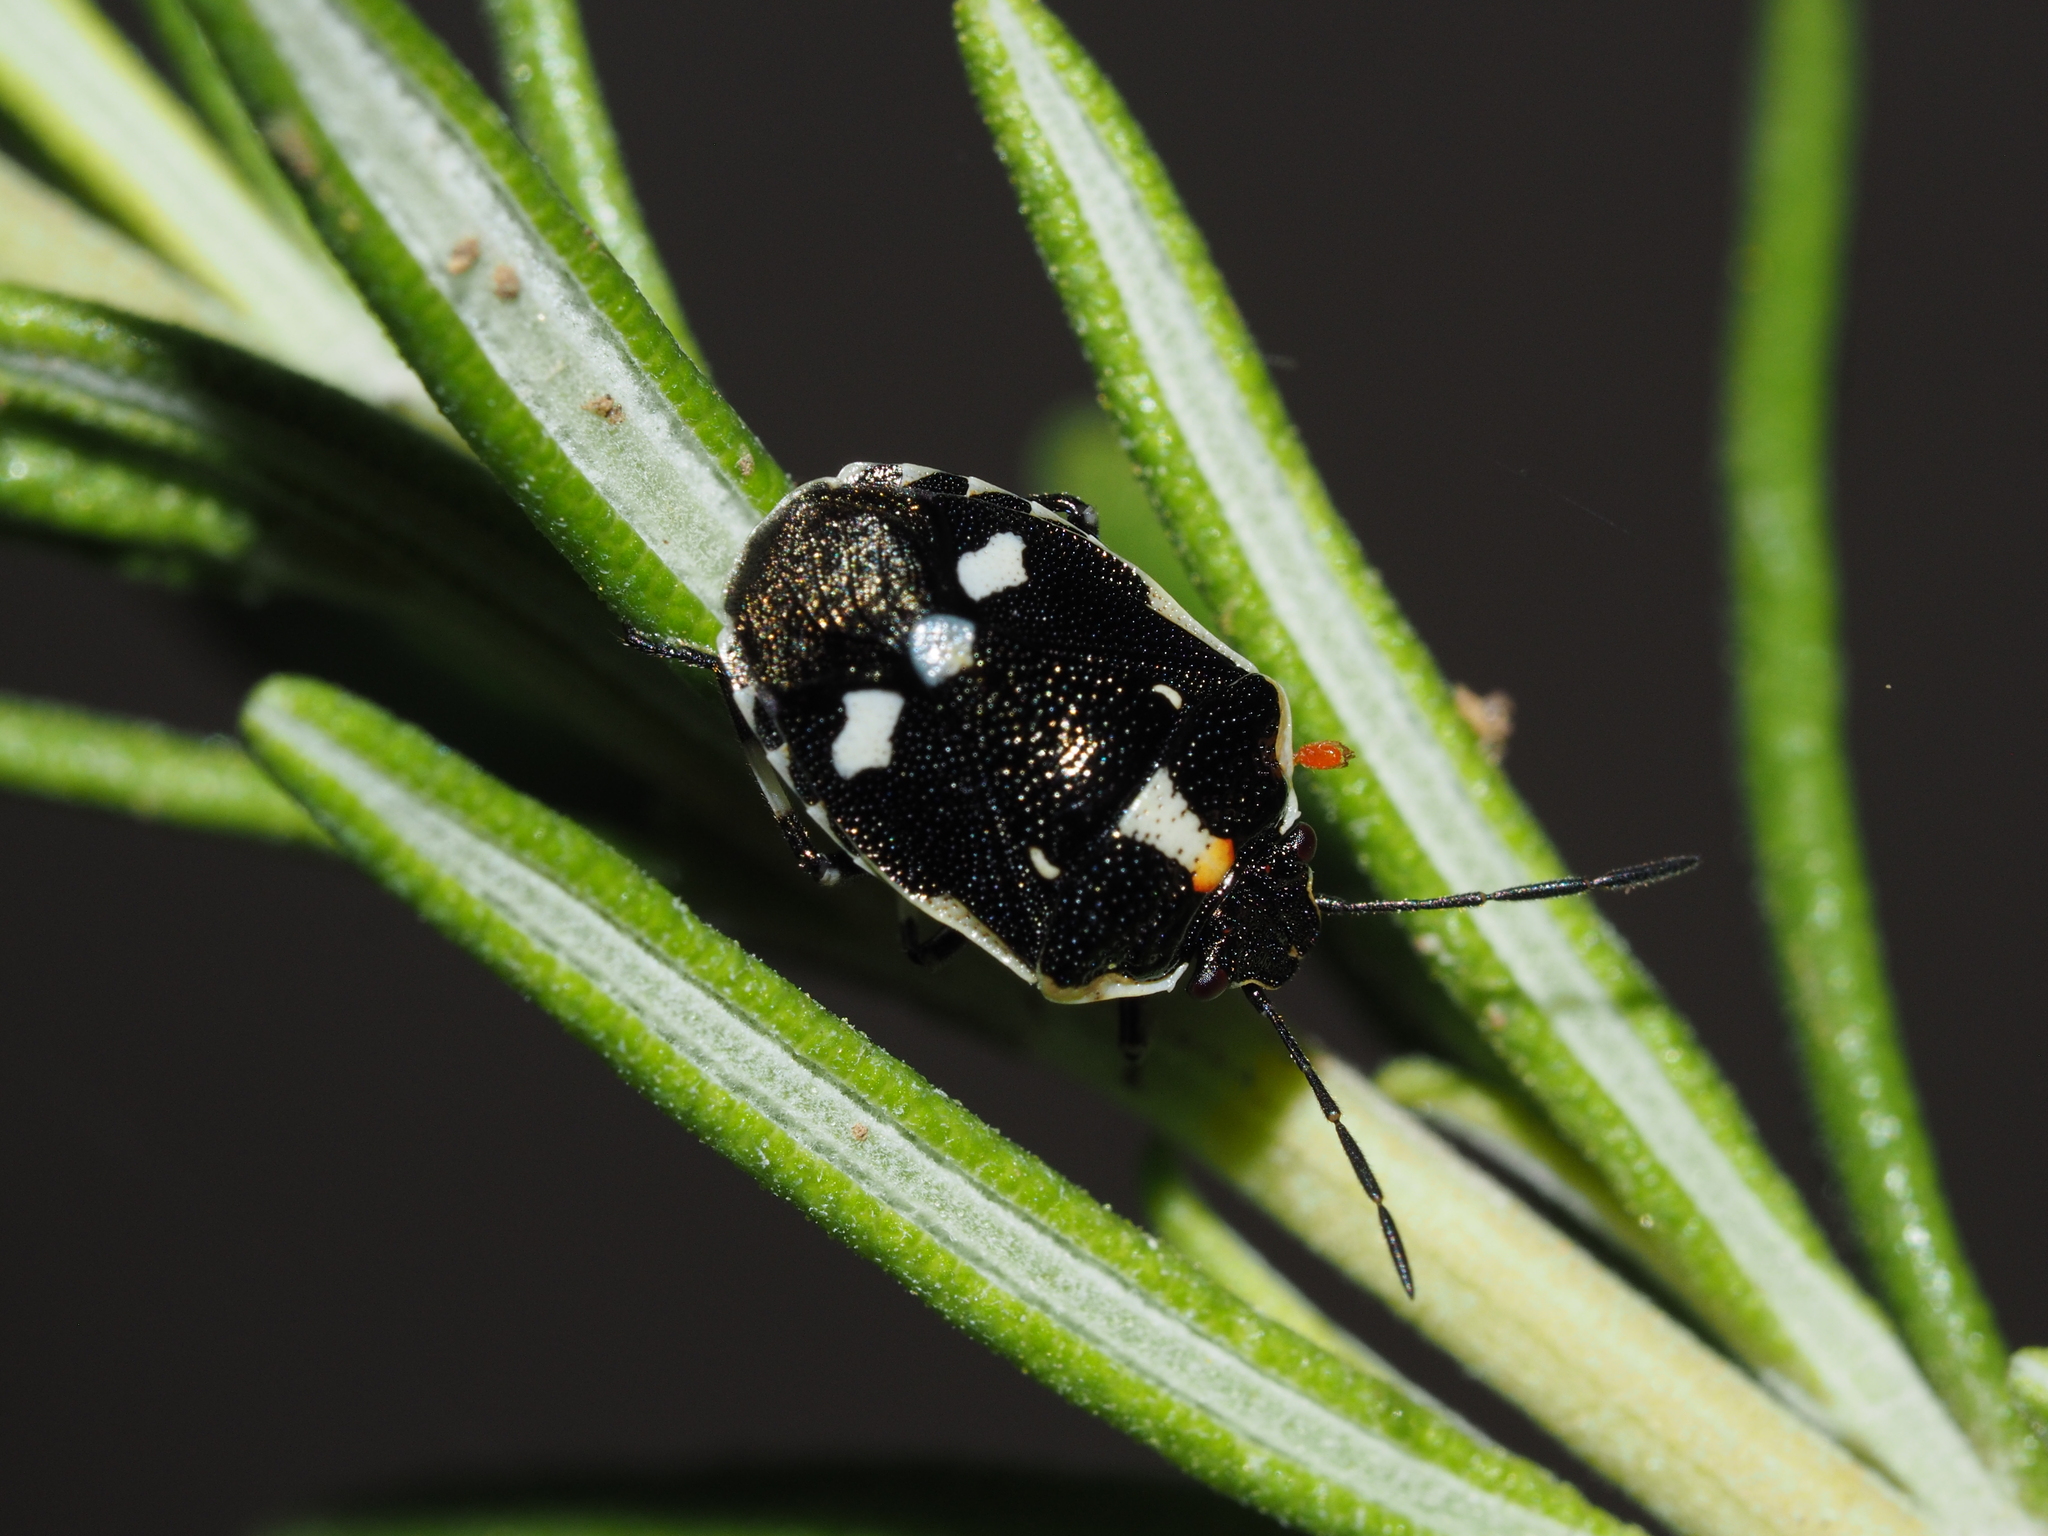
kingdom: Animalia
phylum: Arthropoda
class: Insecta
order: Hemiptera
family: Pentatomidae
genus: Eurydema
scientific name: Eurydema oleracea
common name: Cabbage bug
